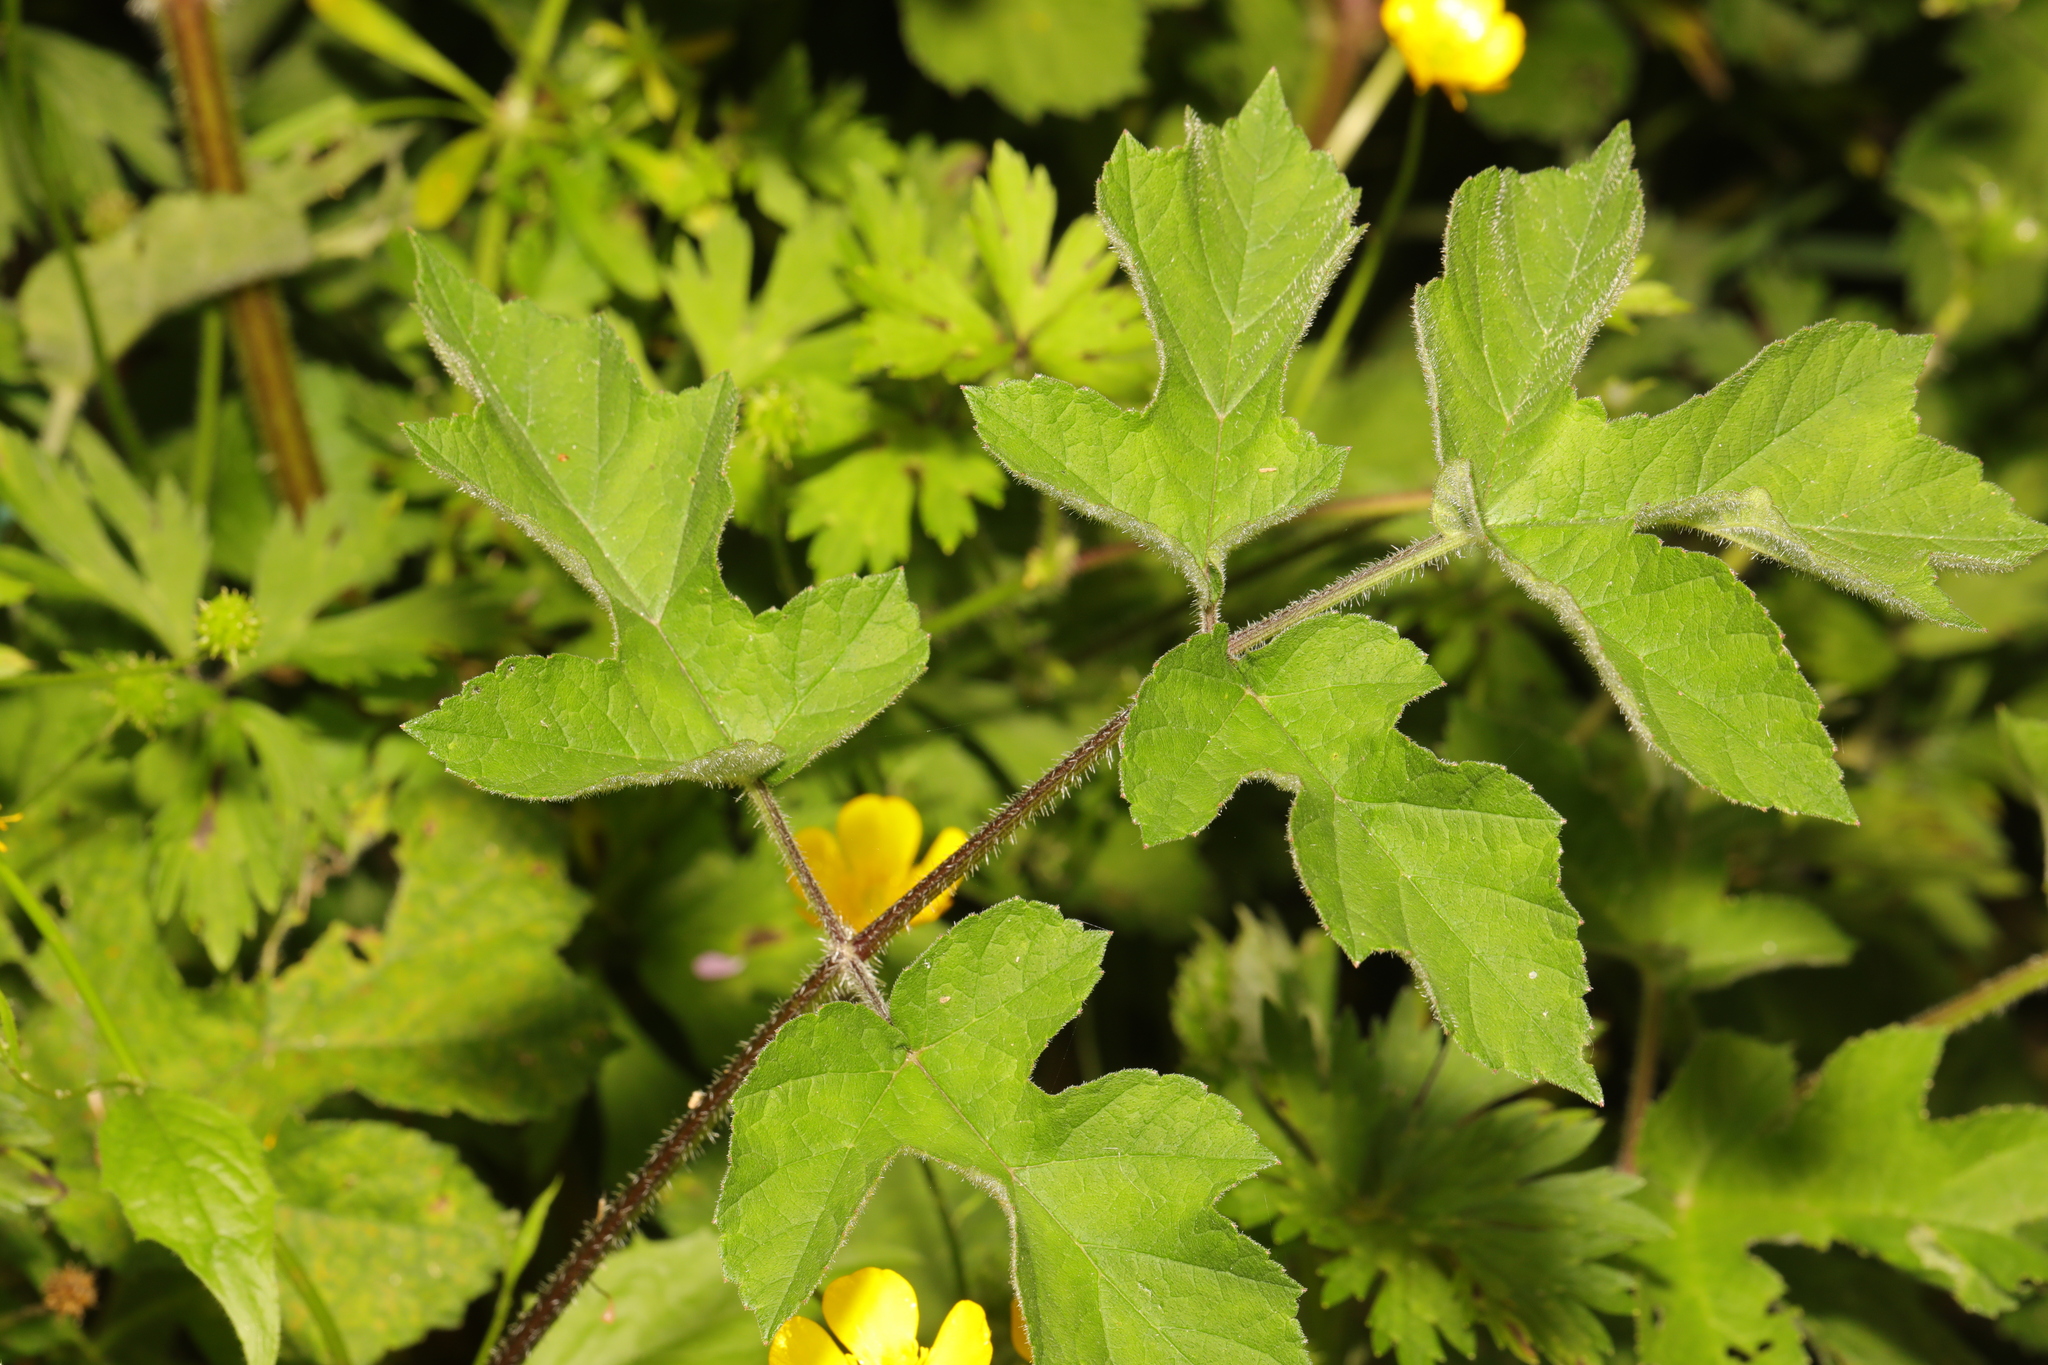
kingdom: Plantae
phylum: Tracheophyta
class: Magnoliopsida
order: Apiales
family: Apiaceae
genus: Heracleum
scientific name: Heracleum sphondylium
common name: Hogweed
